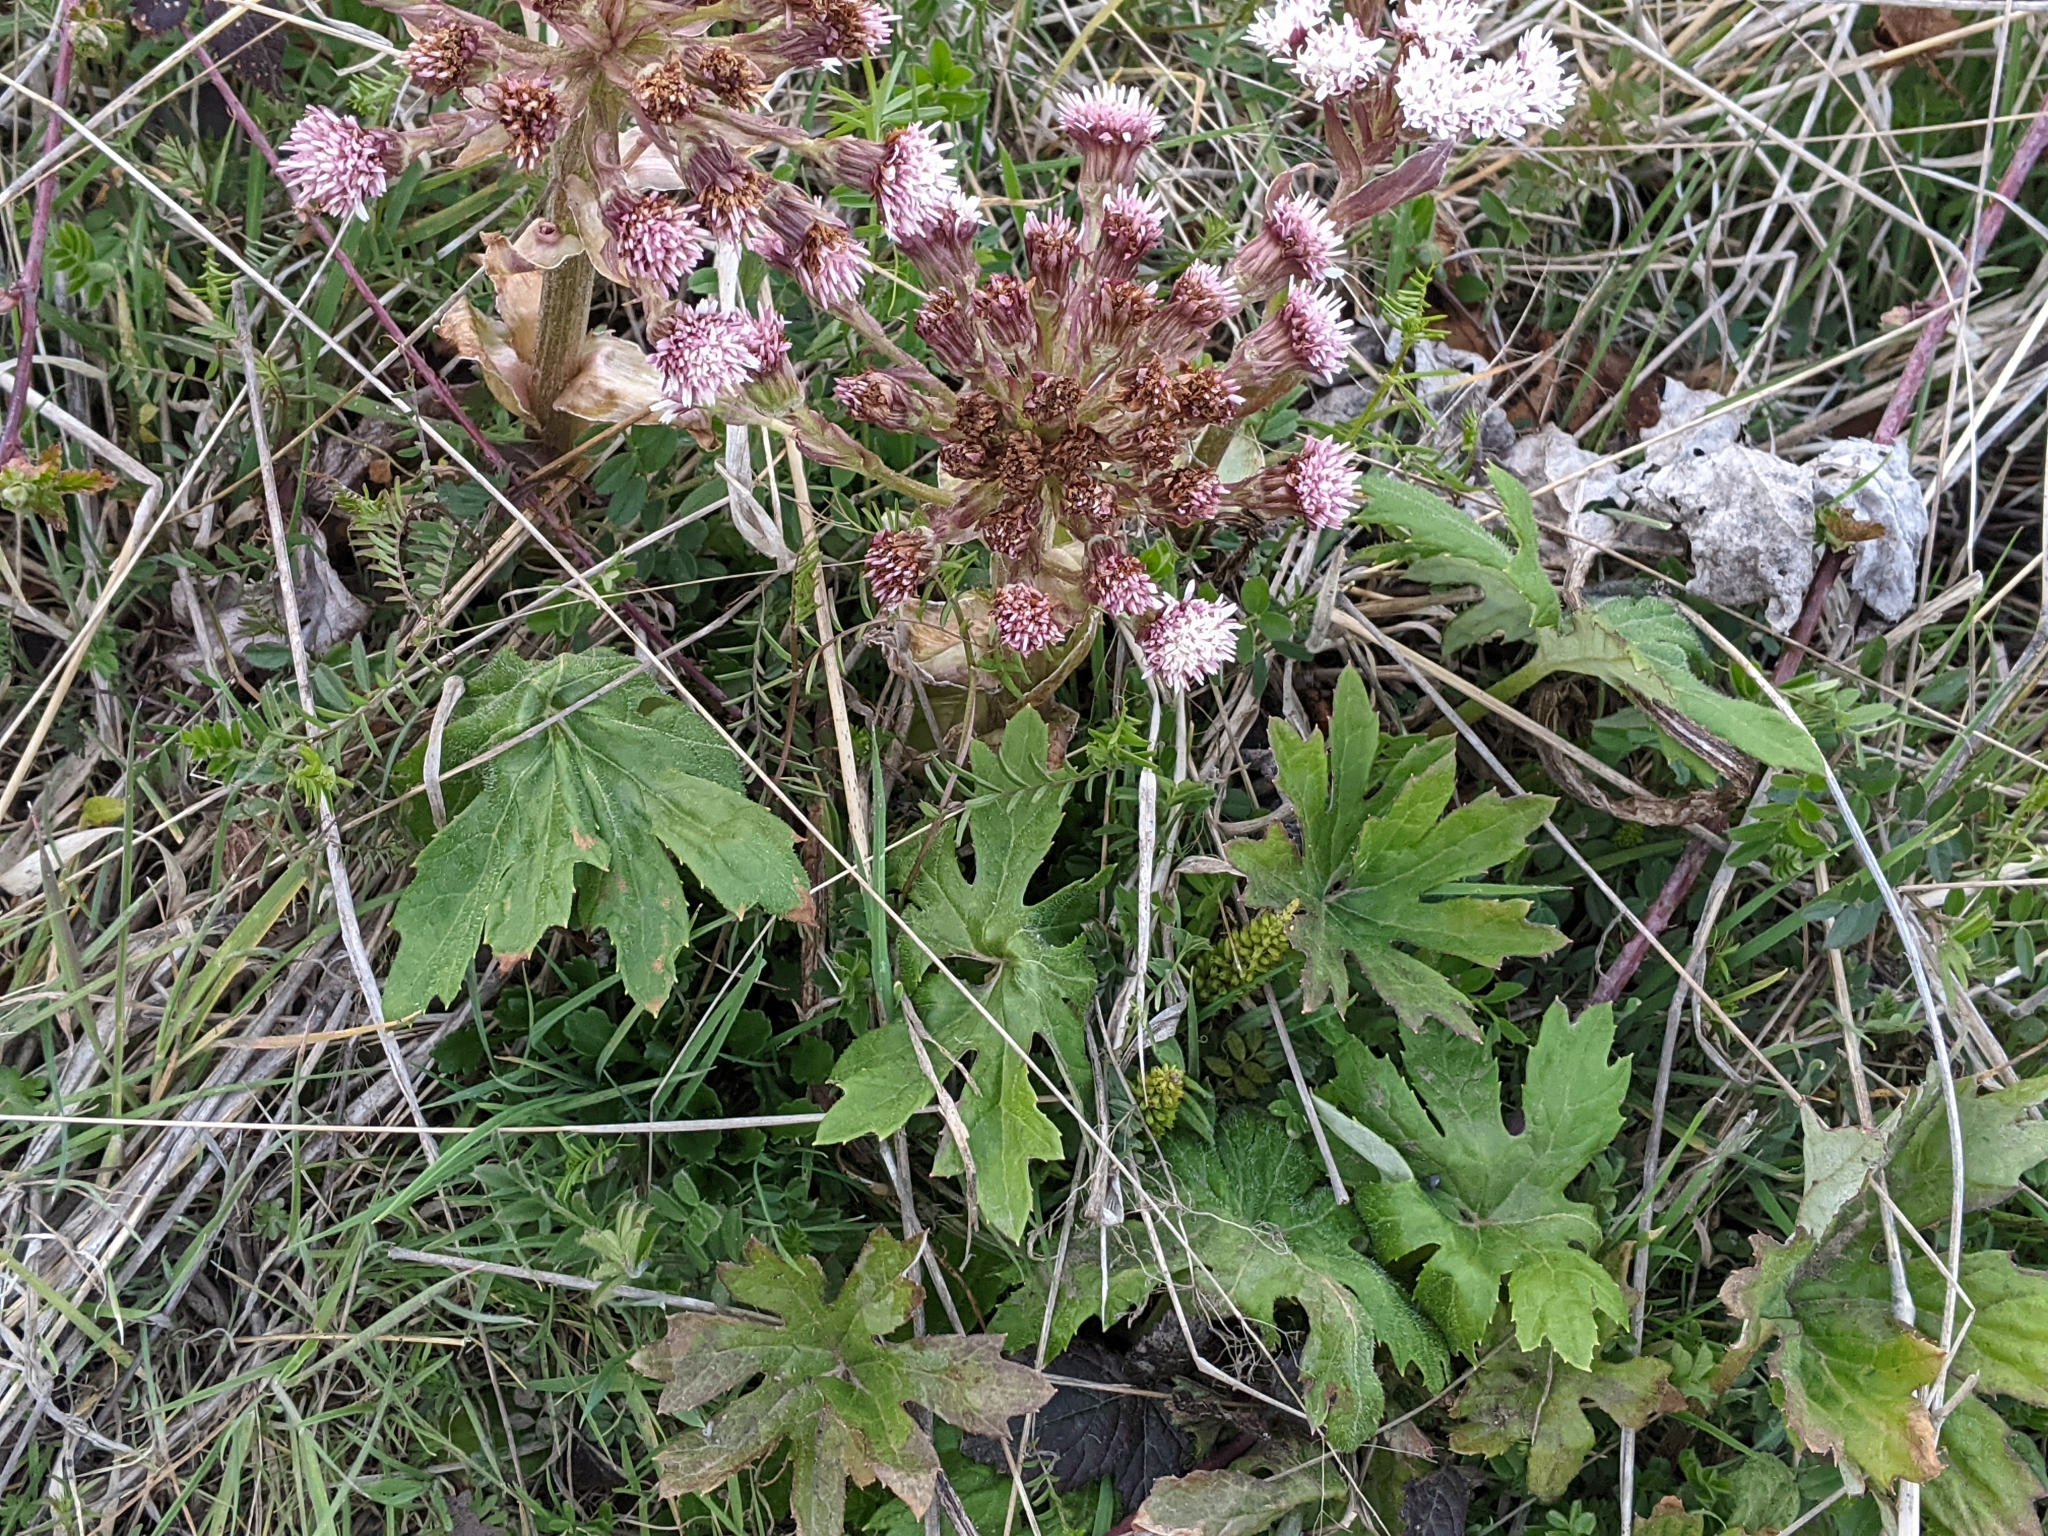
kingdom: Plantae
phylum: Tracheophyta
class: Magnoliopsida
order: Asterales
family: Asteraceae
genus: Petasites
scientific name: Petasites frigidus
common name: Arctic butterbur
